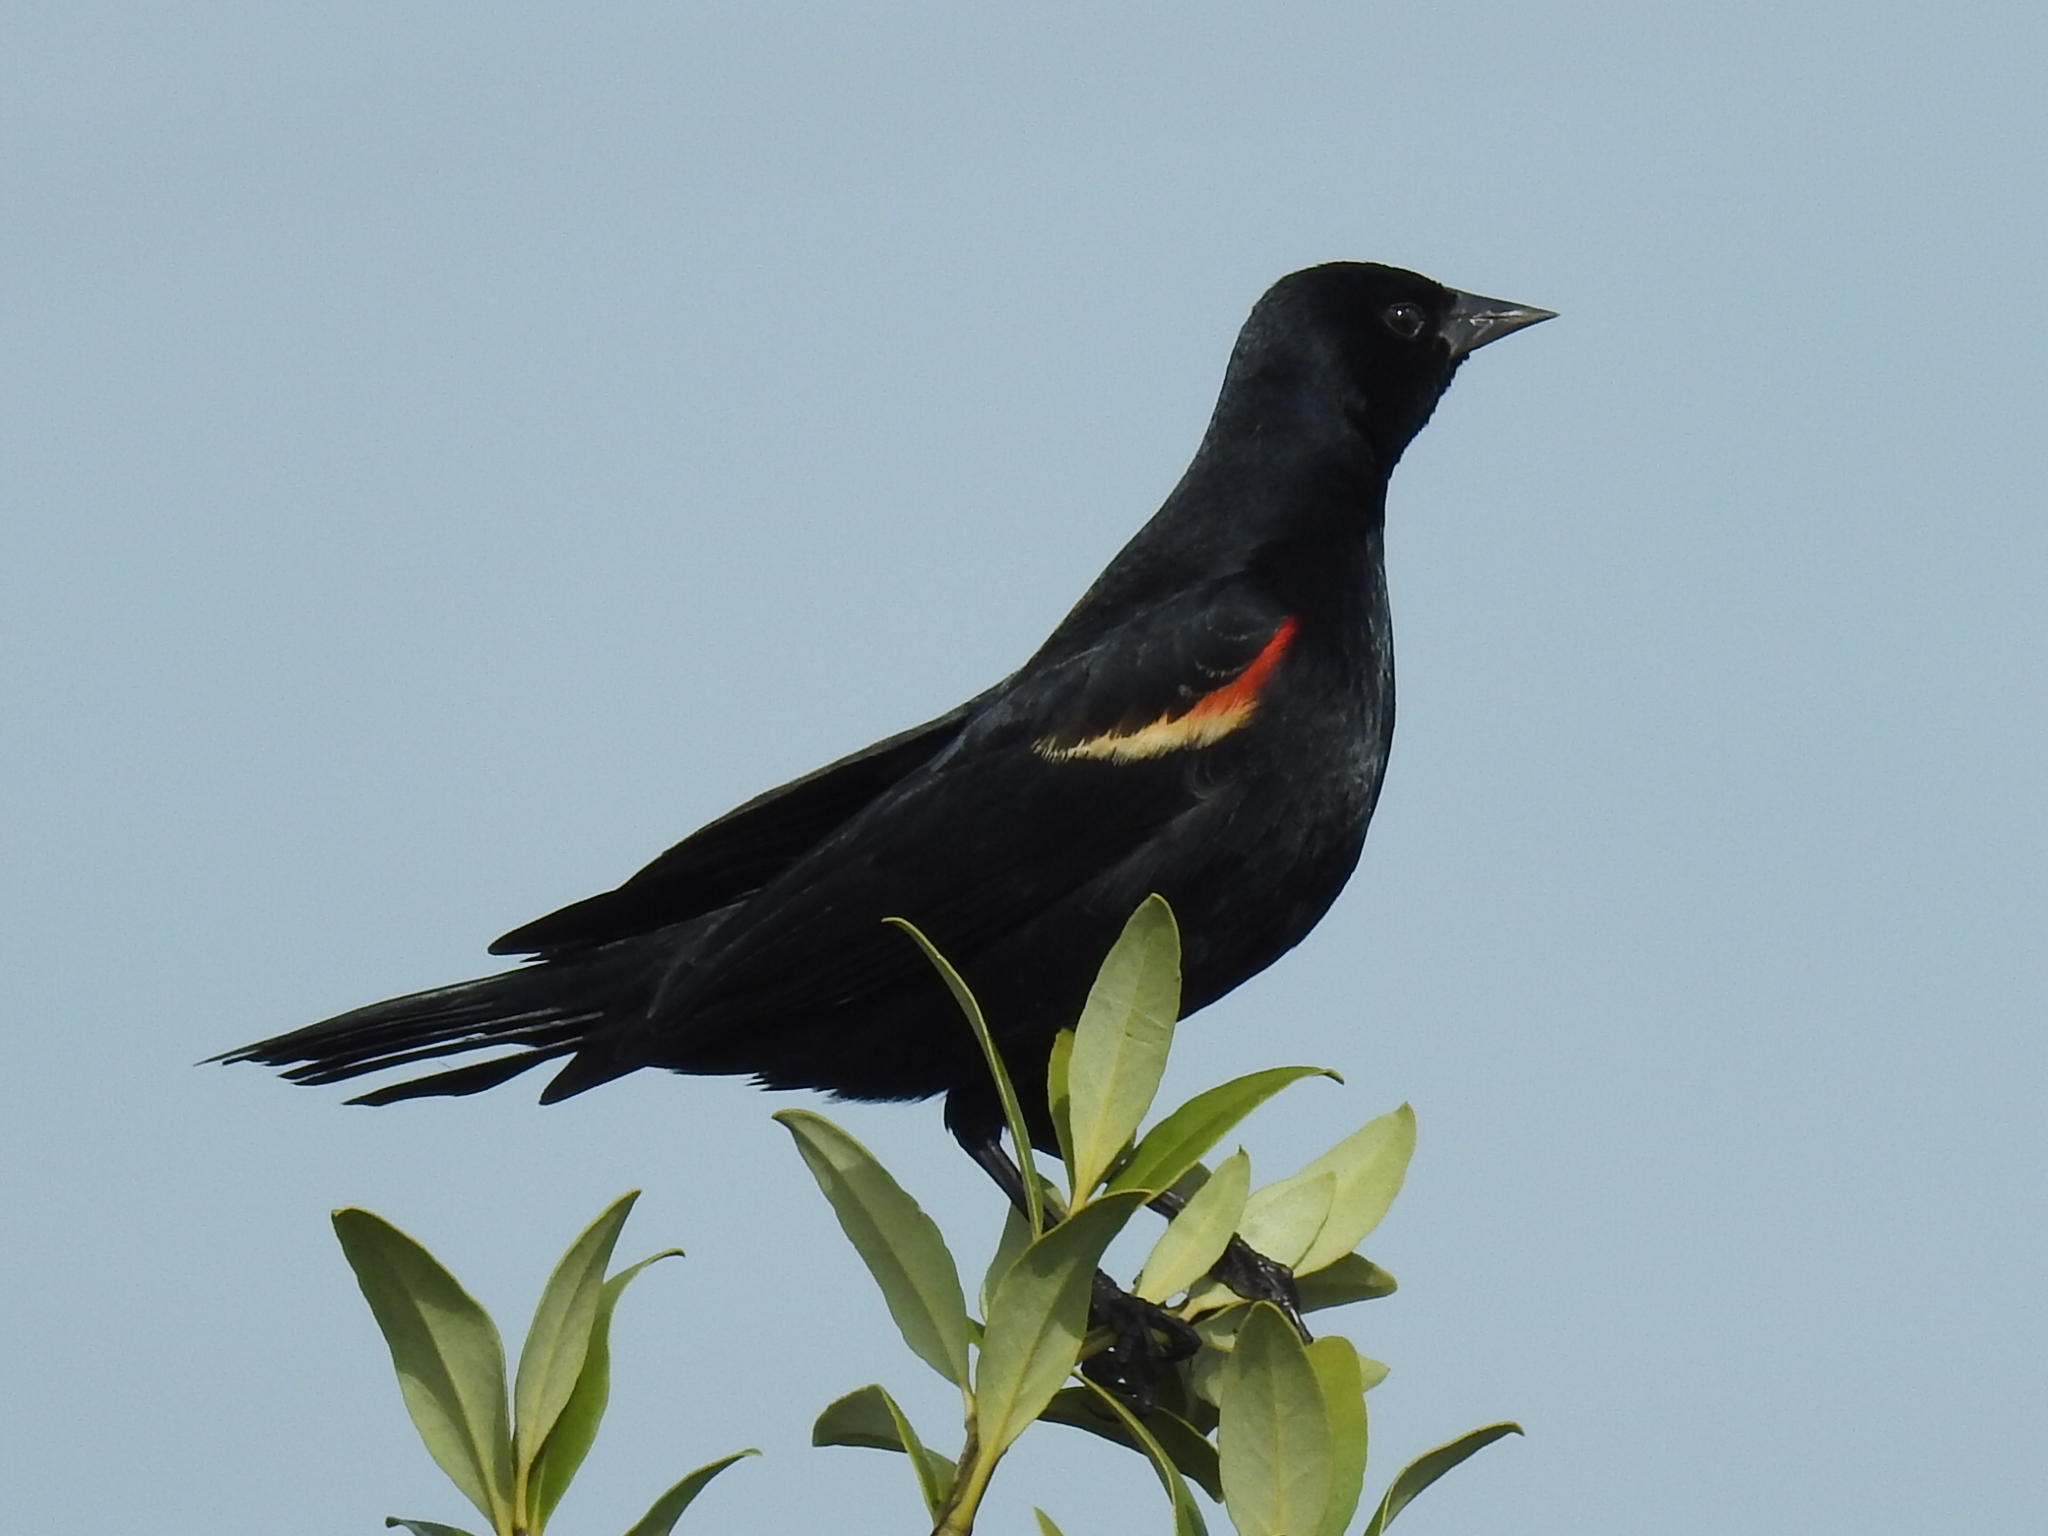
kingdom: Animalia
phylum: Chordata
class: Aves
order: Passeriformes
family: Icteridae
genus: Agelaius
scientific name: Agelaius phoeniceus
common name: Red-winged blackbird
